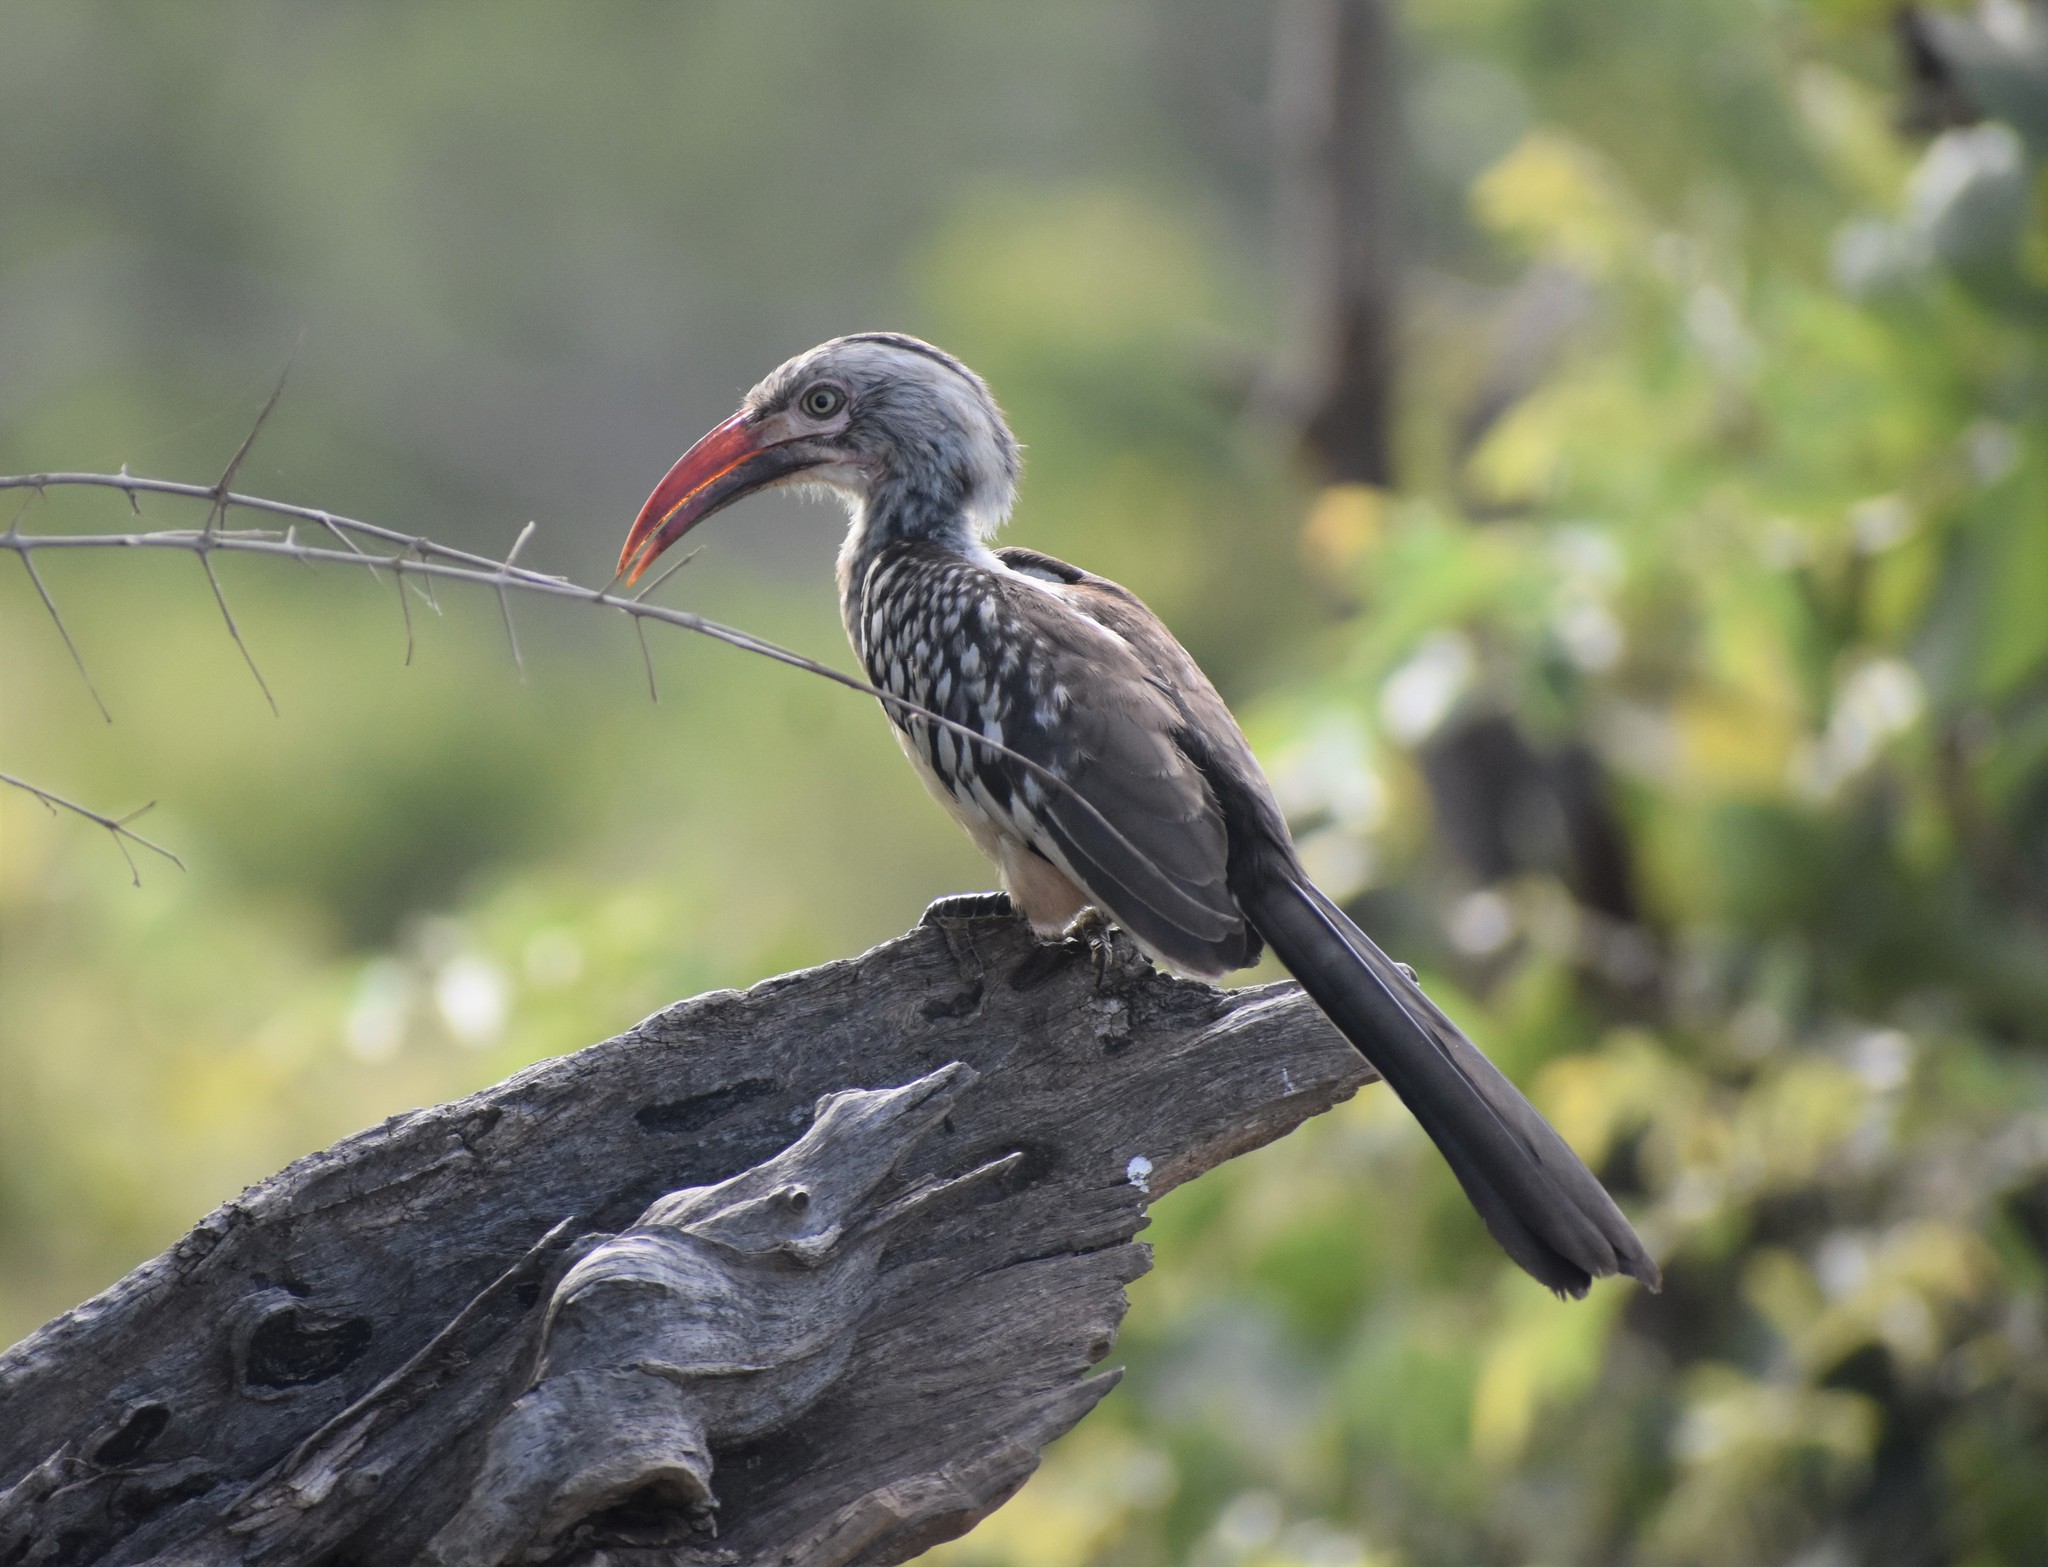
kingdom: Animalia
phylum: Chordata
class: Aves
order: Bucerotiformes
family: Bucerotidae
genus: Tockus
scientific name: Tockus rufirostris
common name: Southern red-billed hornbill
